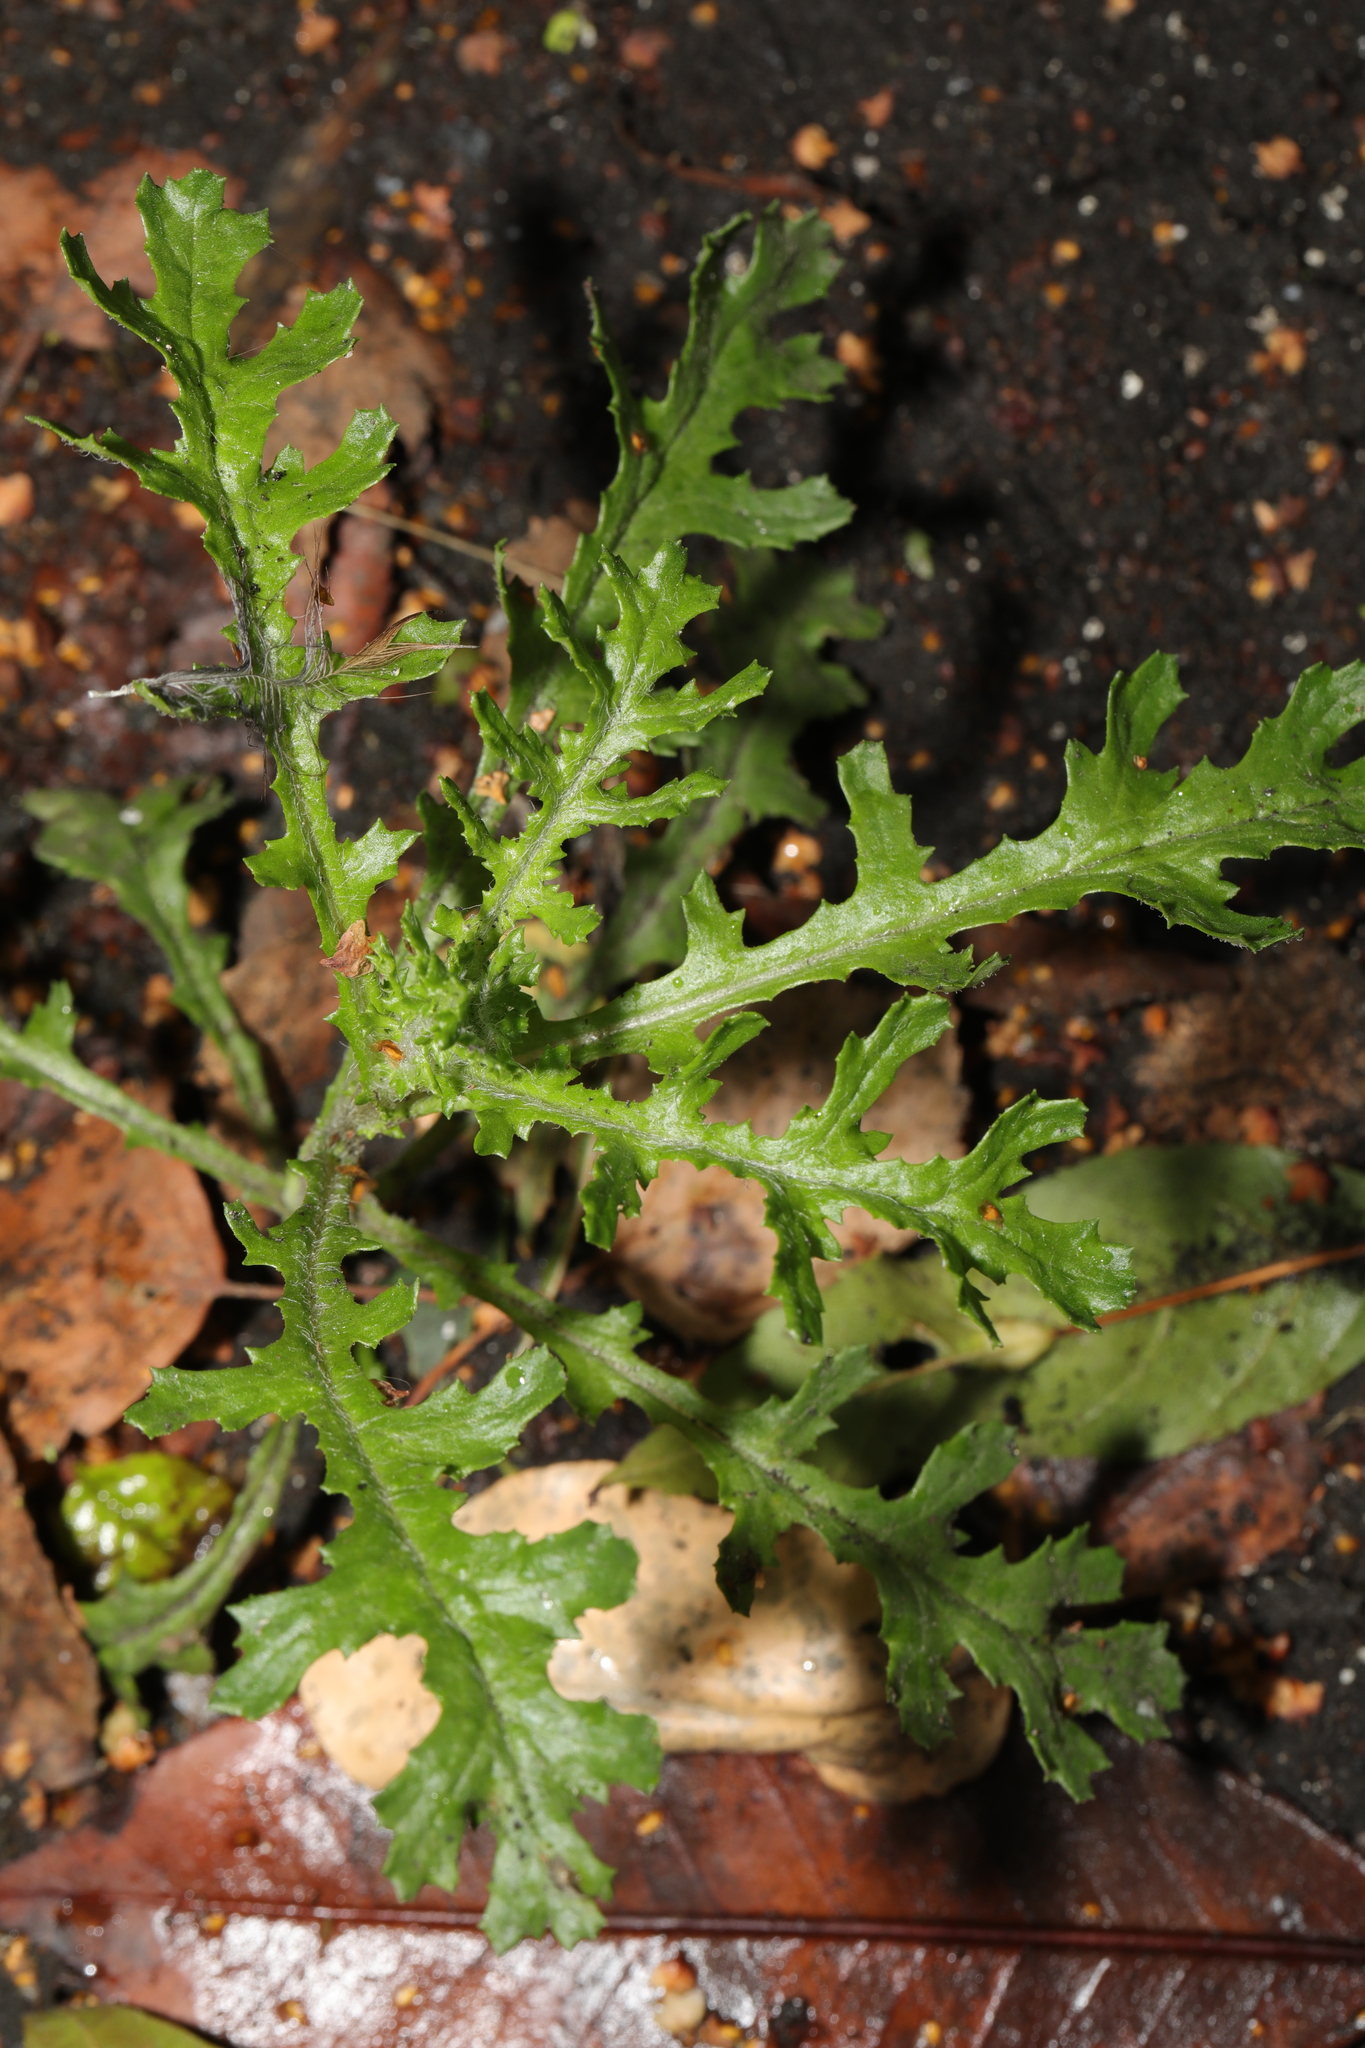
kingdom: Plantae
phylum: Tracheophyta
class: Magnoliopsida
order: Asterales
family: Asteraceae
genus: Senecio
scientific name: Senecio vulgaris
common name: Old-man-in-the-spring
